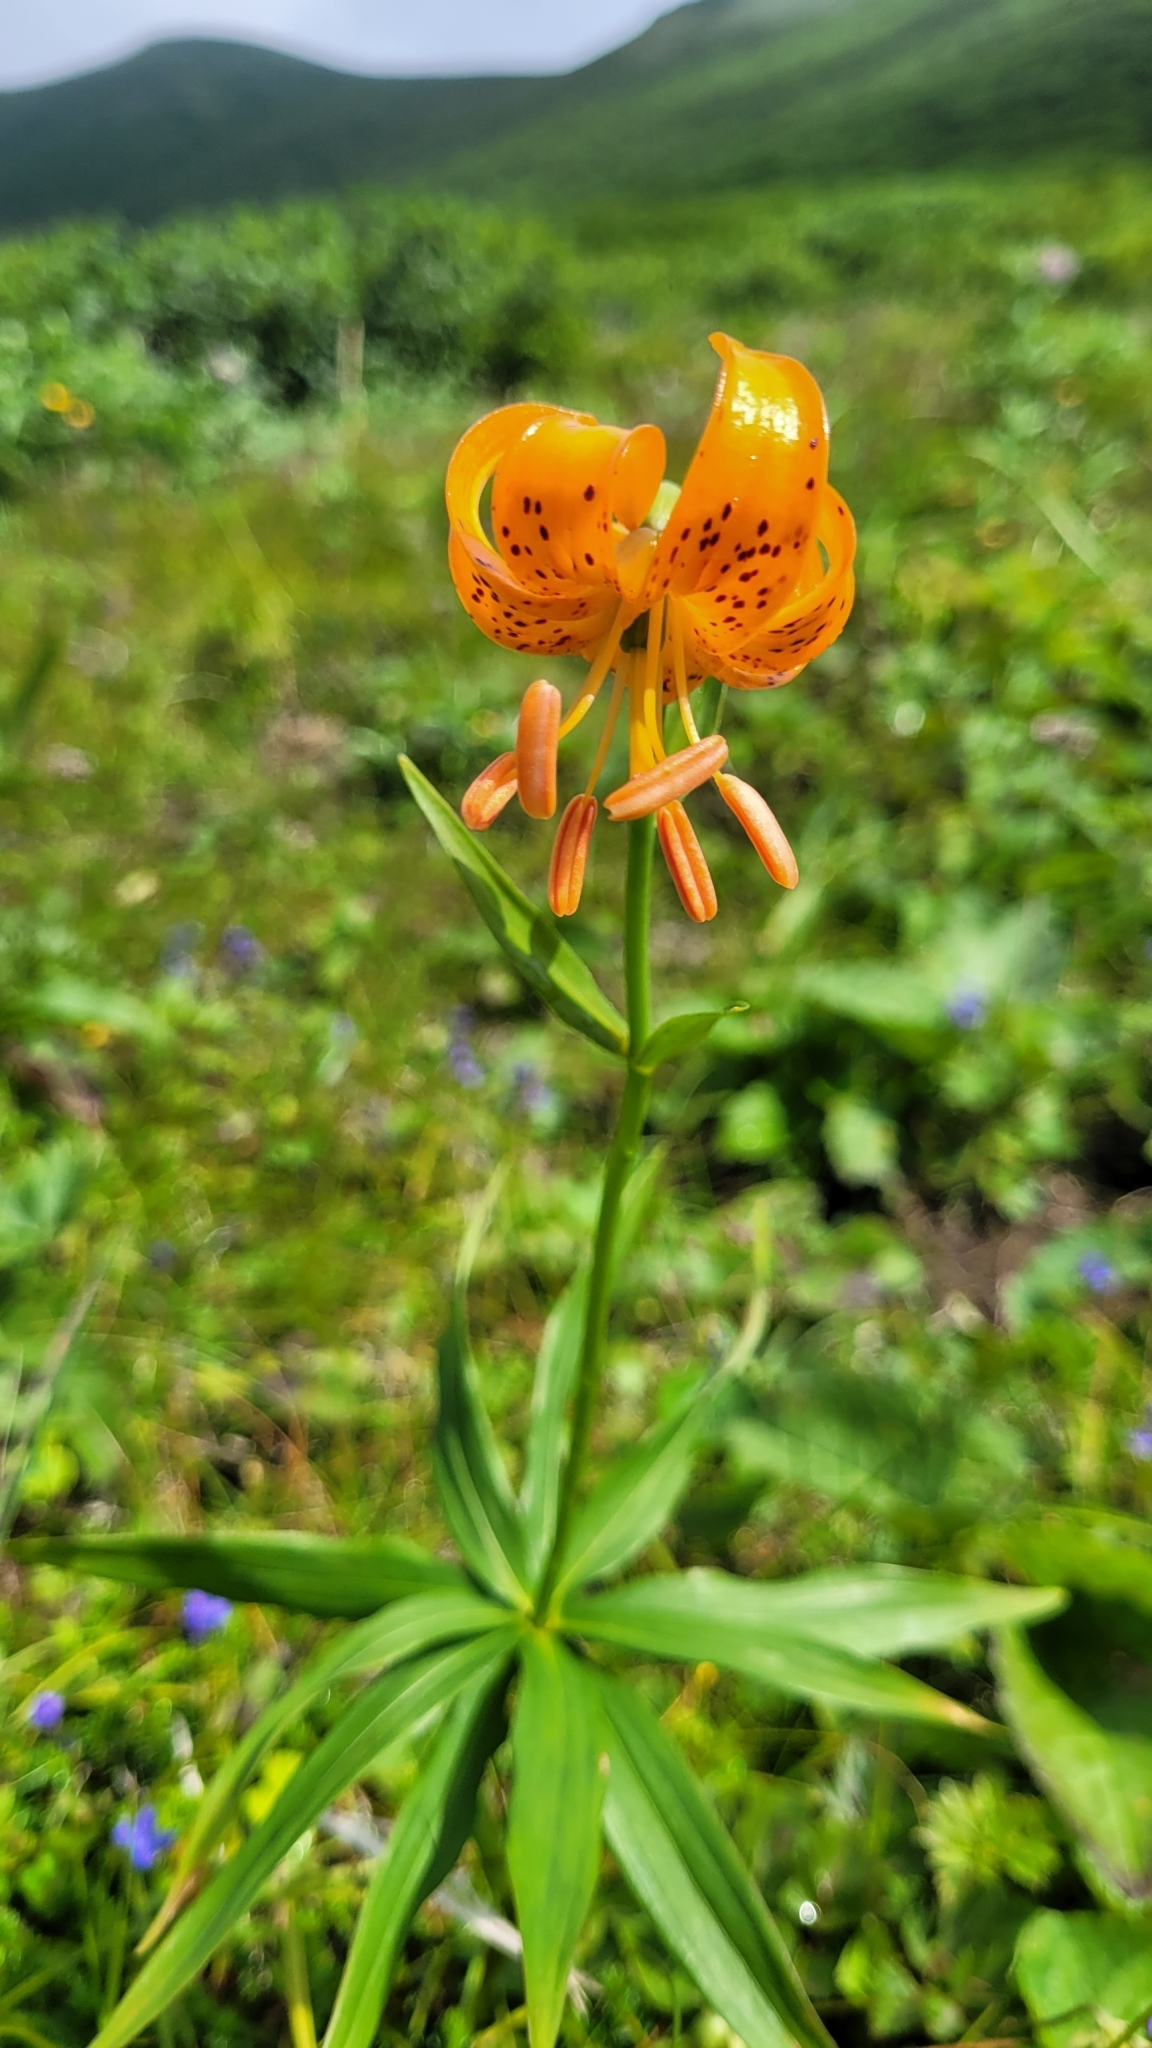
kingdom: Plantae
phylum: Tracheophyta
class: Liliopsida
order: Liliales
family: Liliaceae
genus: Lilium
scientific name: Lilium debile
